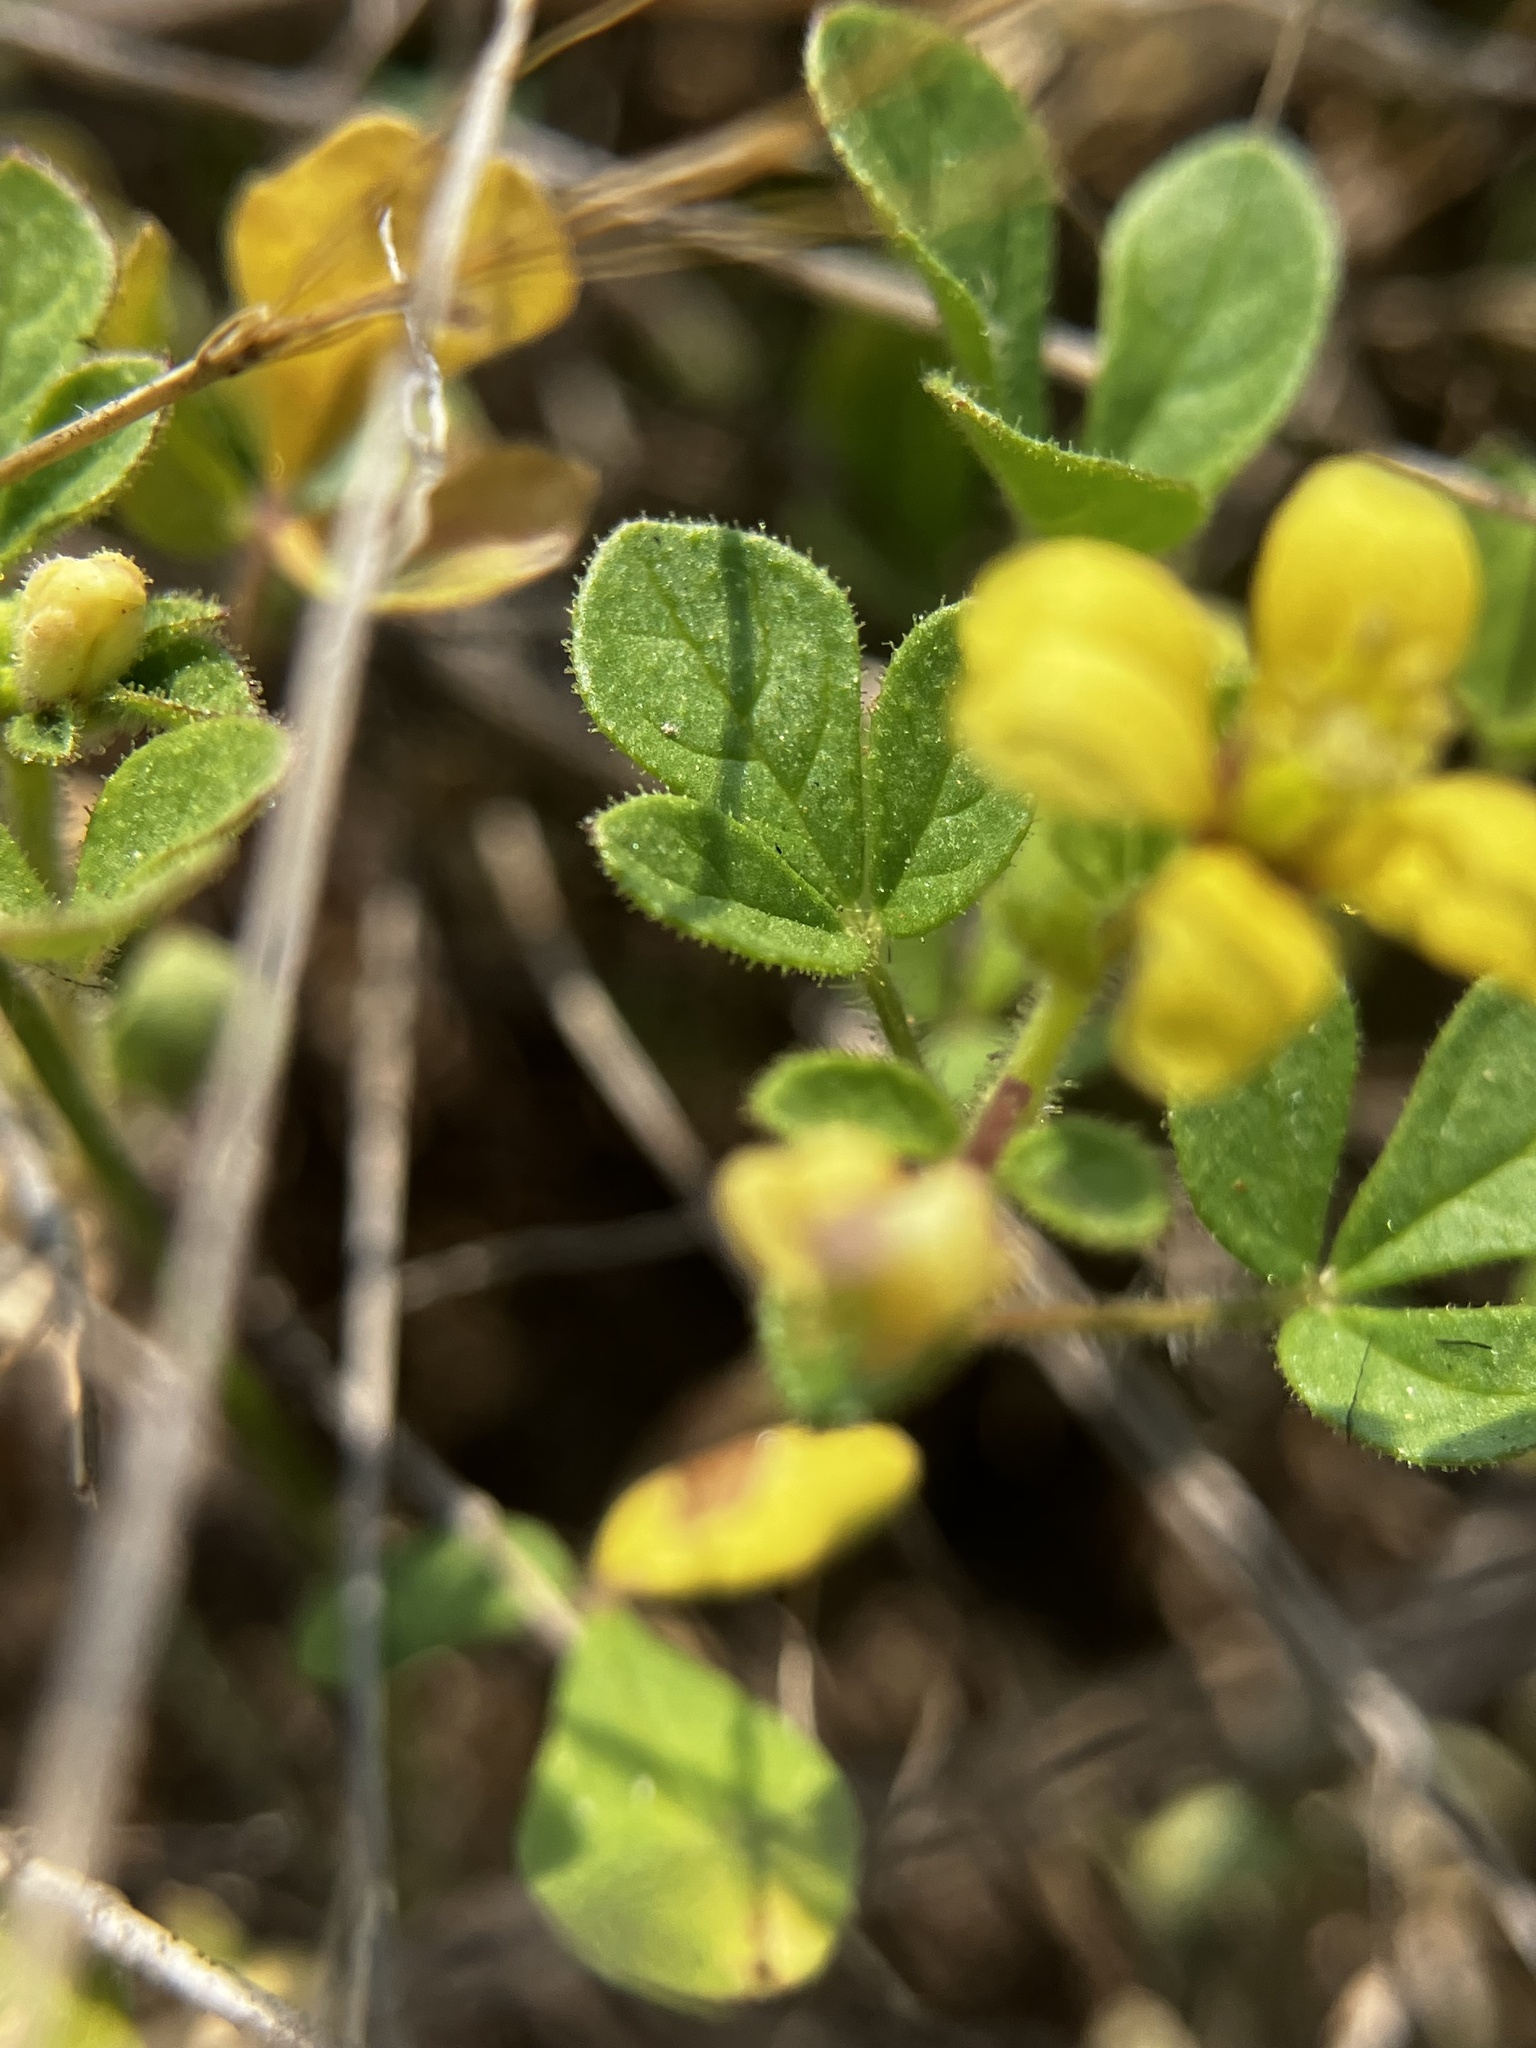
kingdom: Plantae
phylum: Tracheophyta
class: Magnoliopsida
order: Brassicales
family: Cleomaceae
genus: Arivela
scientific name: Arivela viscosa
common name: Asian spiderflower
